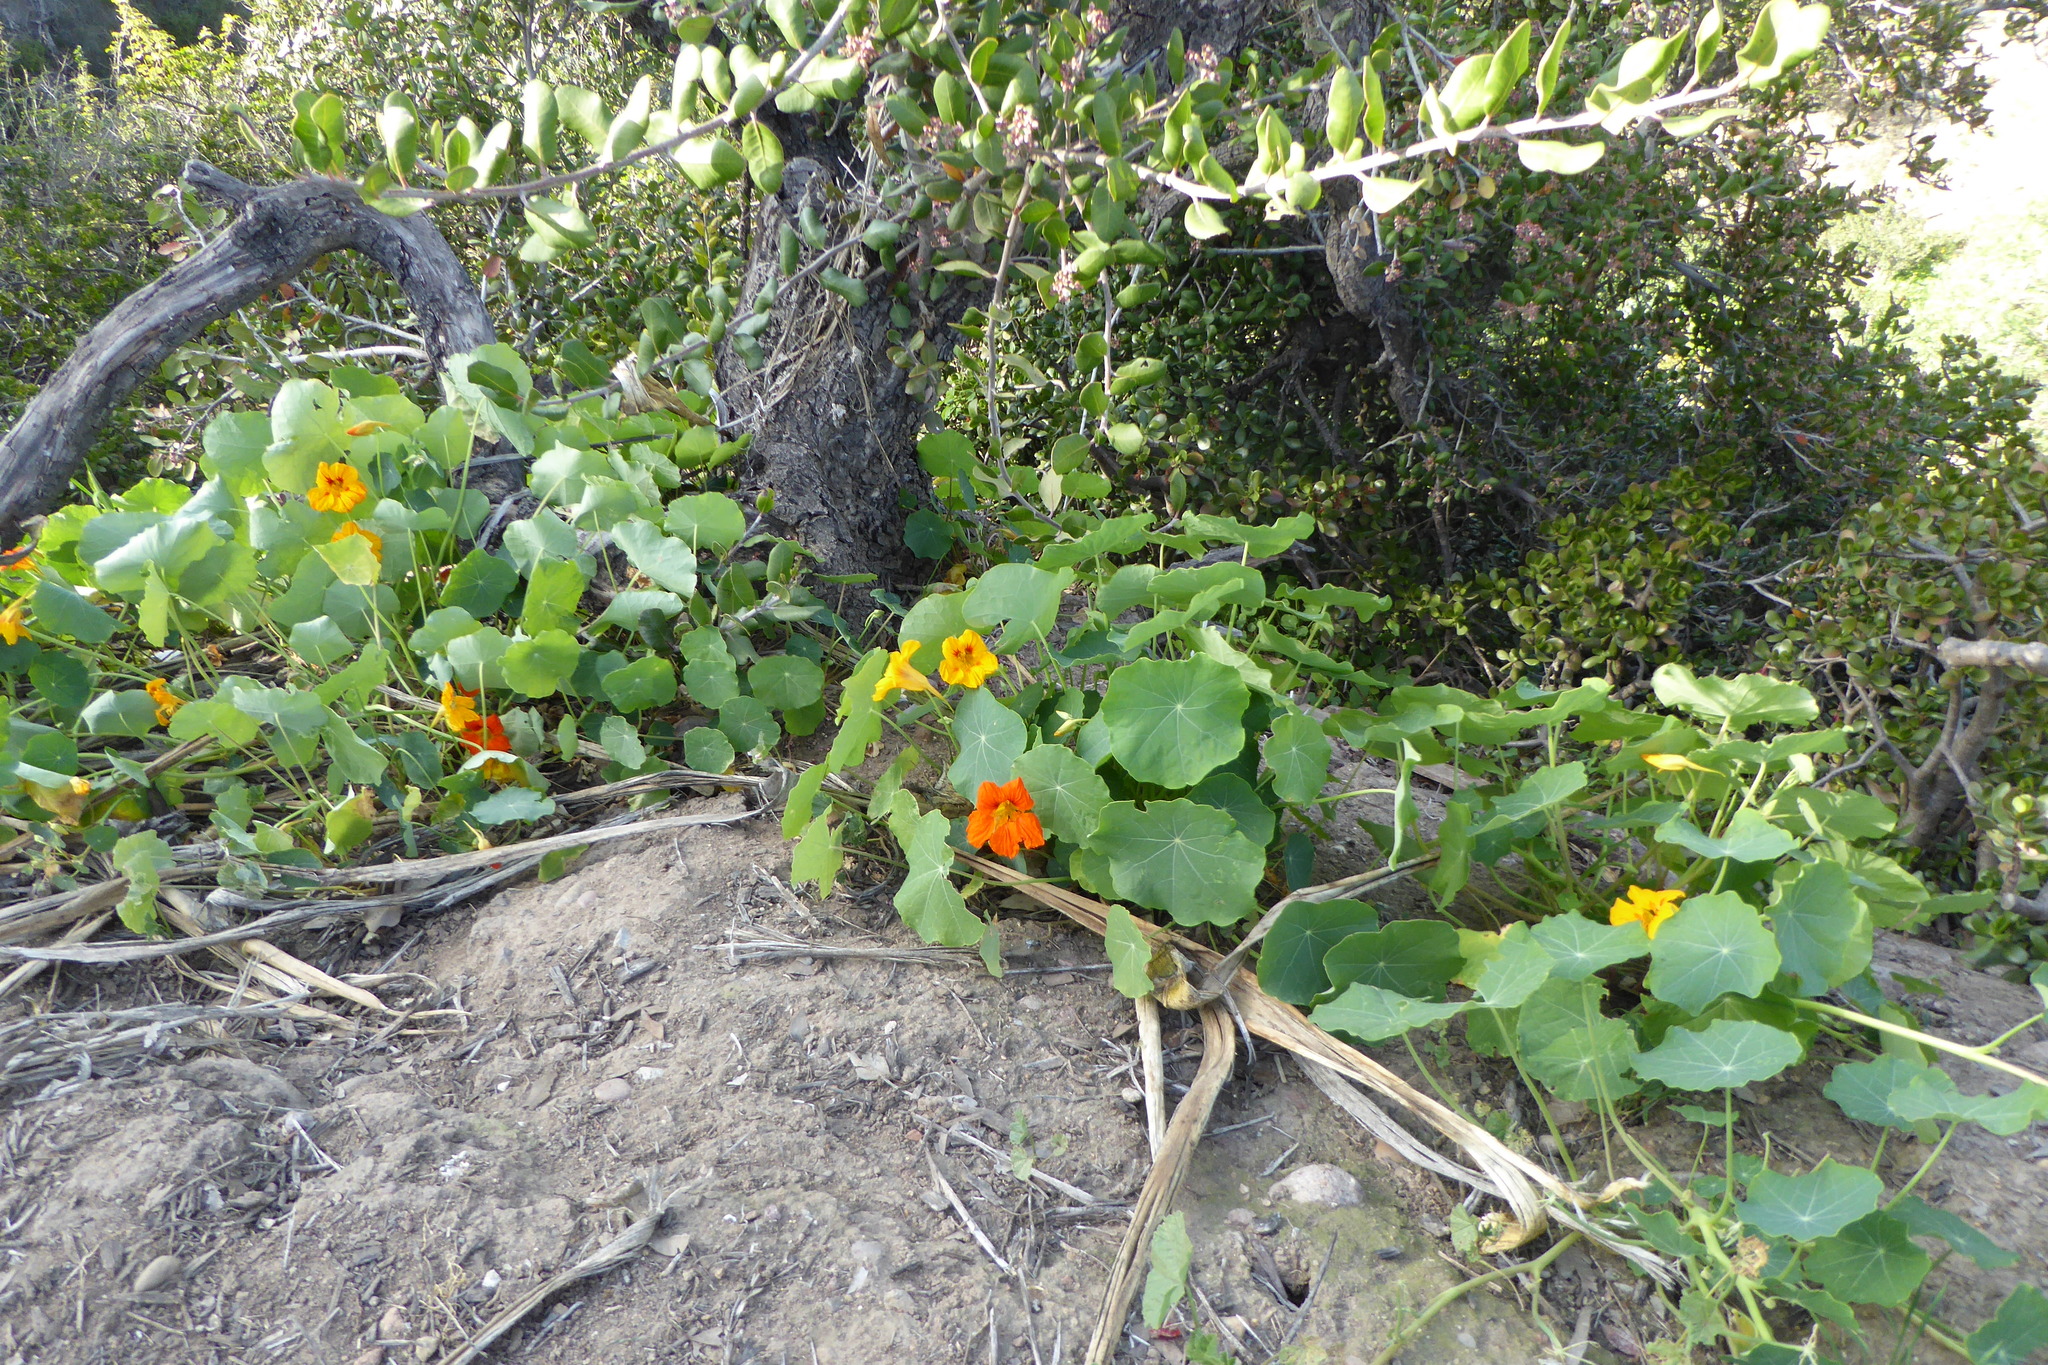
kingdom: Plantae
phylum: Tracheophyta
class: Magnoliopsida
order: Brassicales
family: Tropaeolaceae
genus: Tropaeolum
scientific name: Tropaeolum majus
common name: Nasturtium
